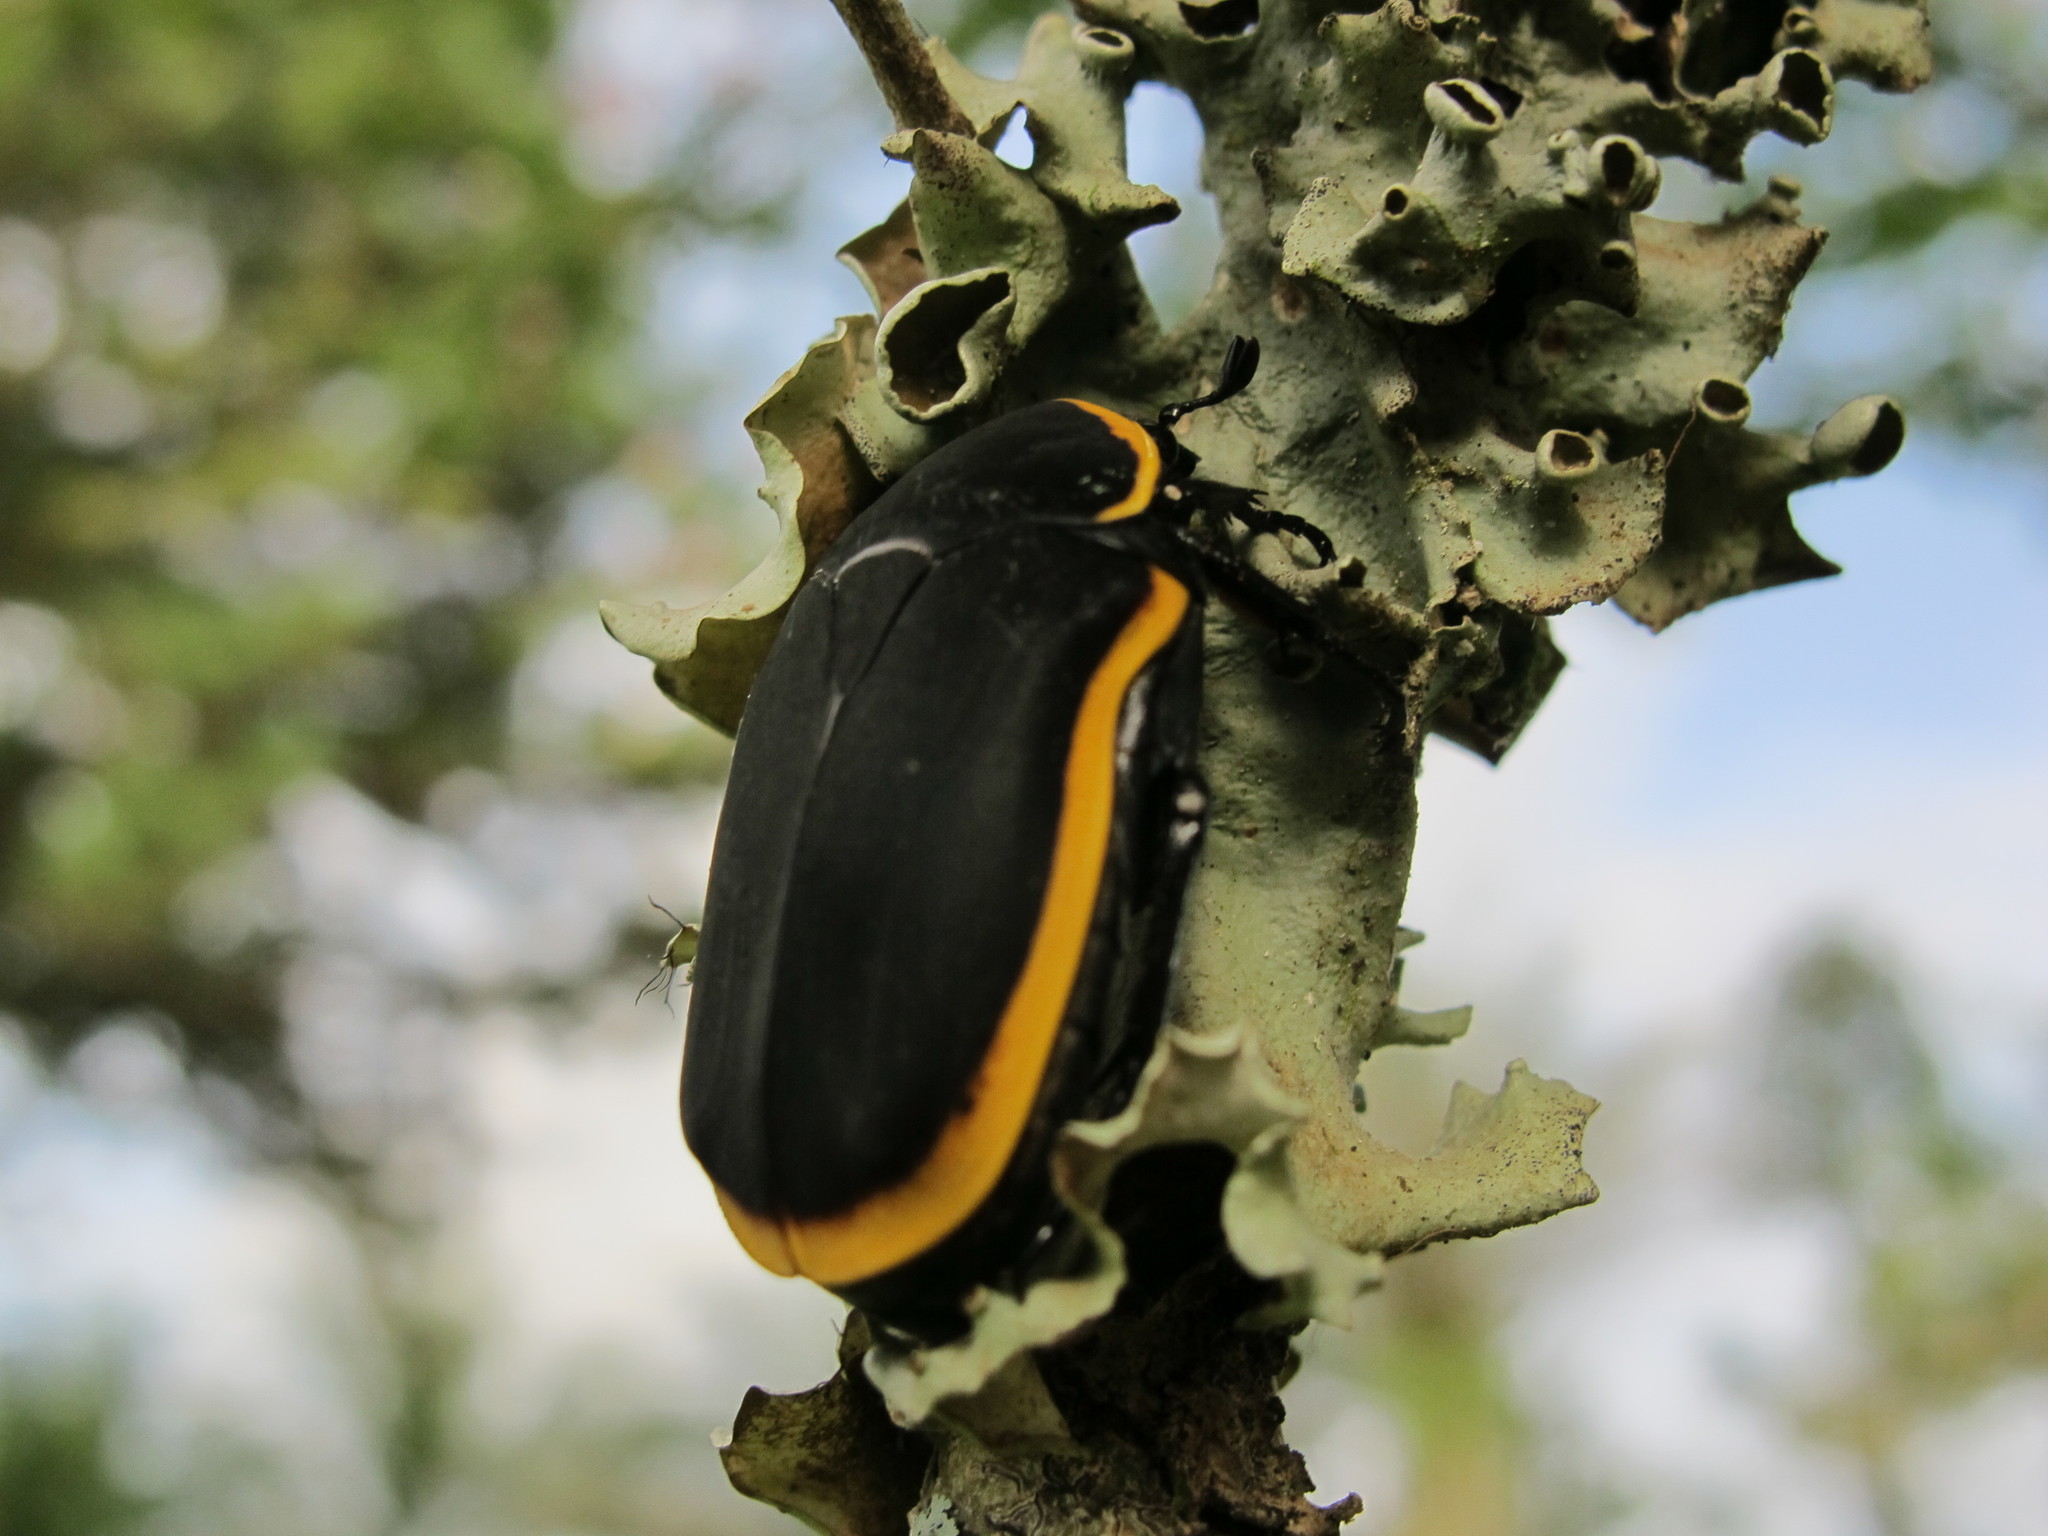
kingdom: Animalia
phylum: Arthropoda
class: Insecta
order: Coleoptera
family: Scarabaeidae
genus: Pachnoda
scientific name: Pachnoda marginata
